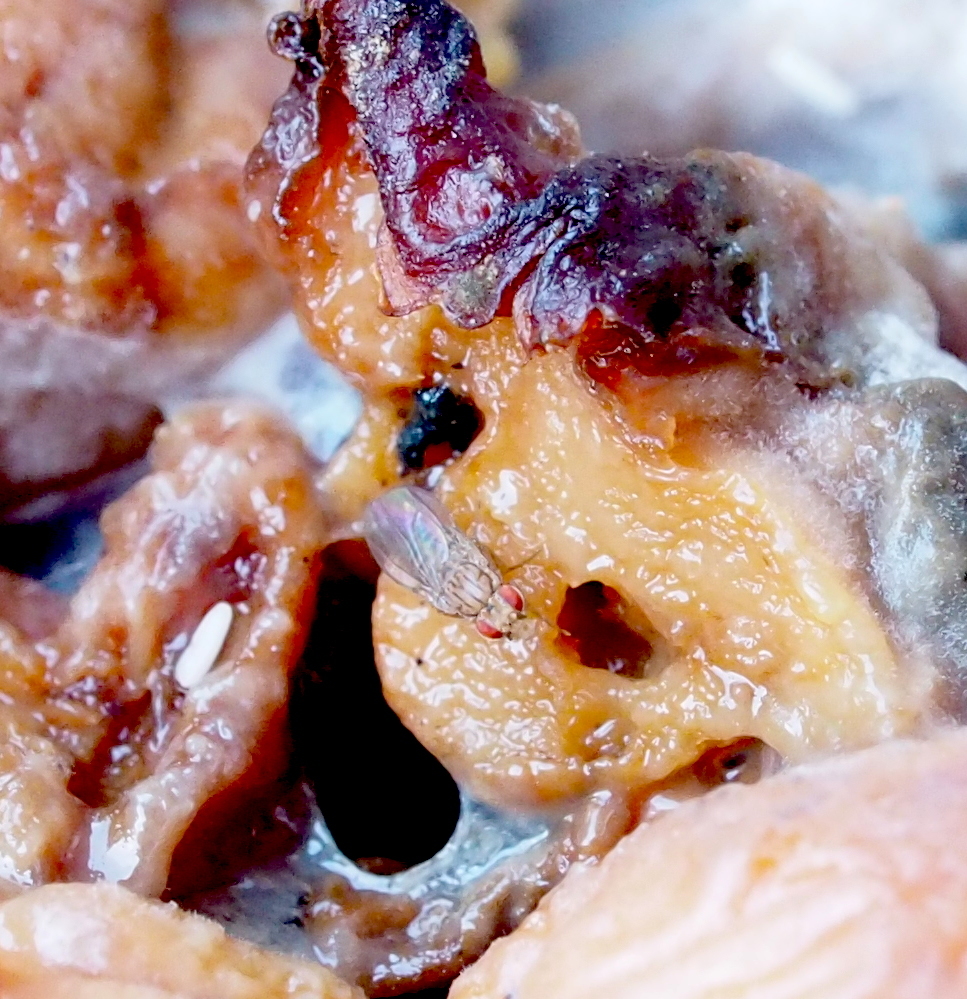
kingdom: Animalia
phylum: Arthropoda
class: Insecta
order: Diptera
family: Drosophilidae
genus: Drosophila
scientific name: Drosophila busckii
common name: Pomace fly
